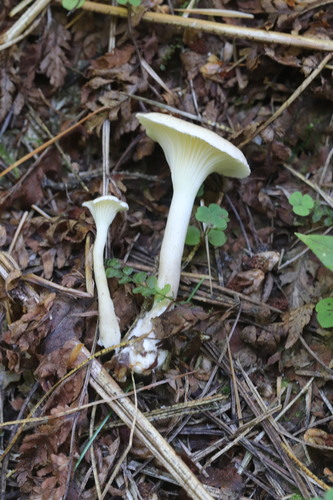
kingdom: Fungi
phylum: Basidiomycota
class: Agaricomycetes
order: Agaricales
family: Hygrophoraceae
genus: Hygrophorus
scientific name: Hygrophorus piceae
